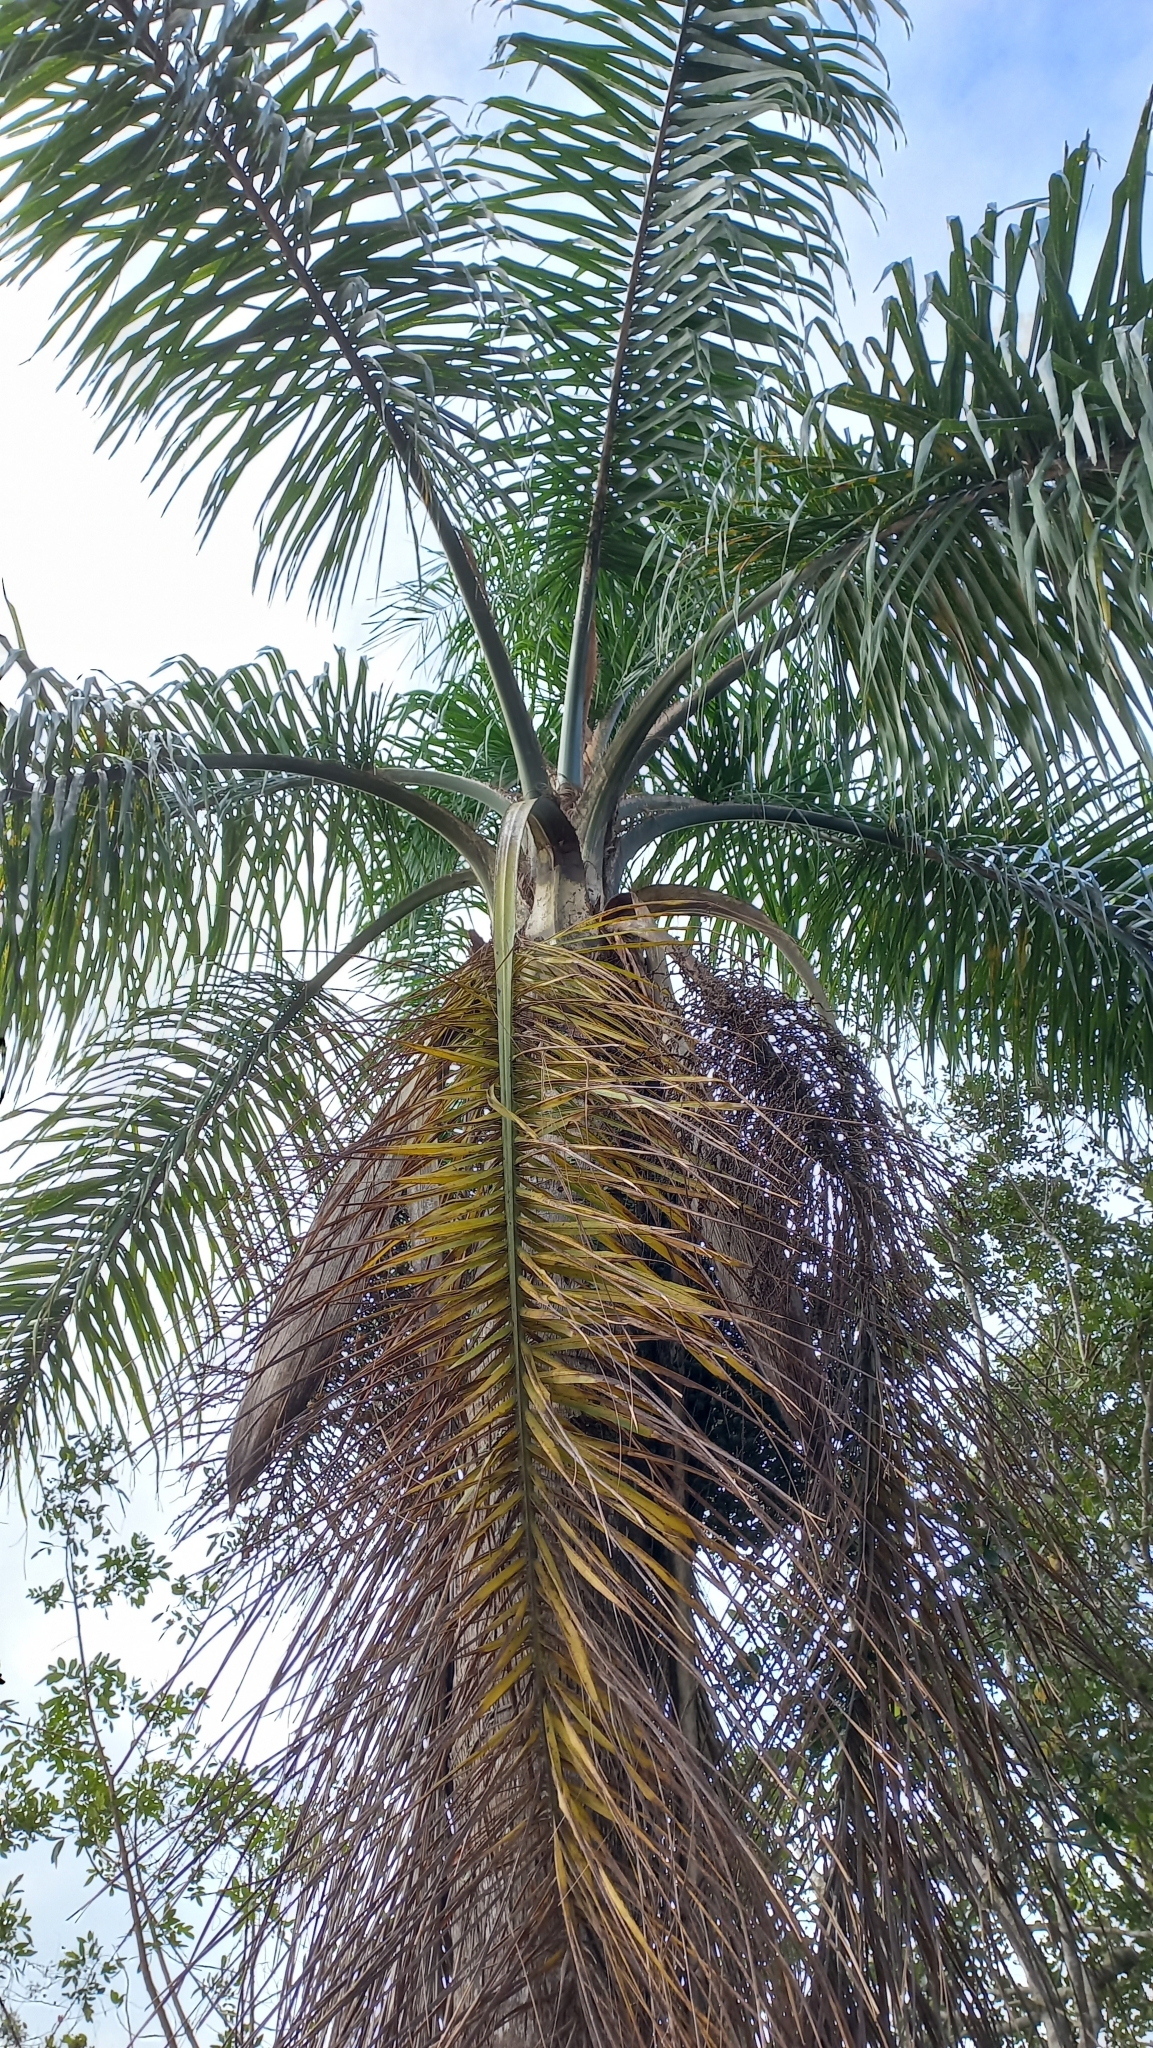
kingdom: Plantae
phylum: Tracheophyta
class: Liliopsida
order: Arecales
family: Arecaceae
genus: Syagrus
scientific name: Syagrus romanzoffiana
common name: Queen palm
